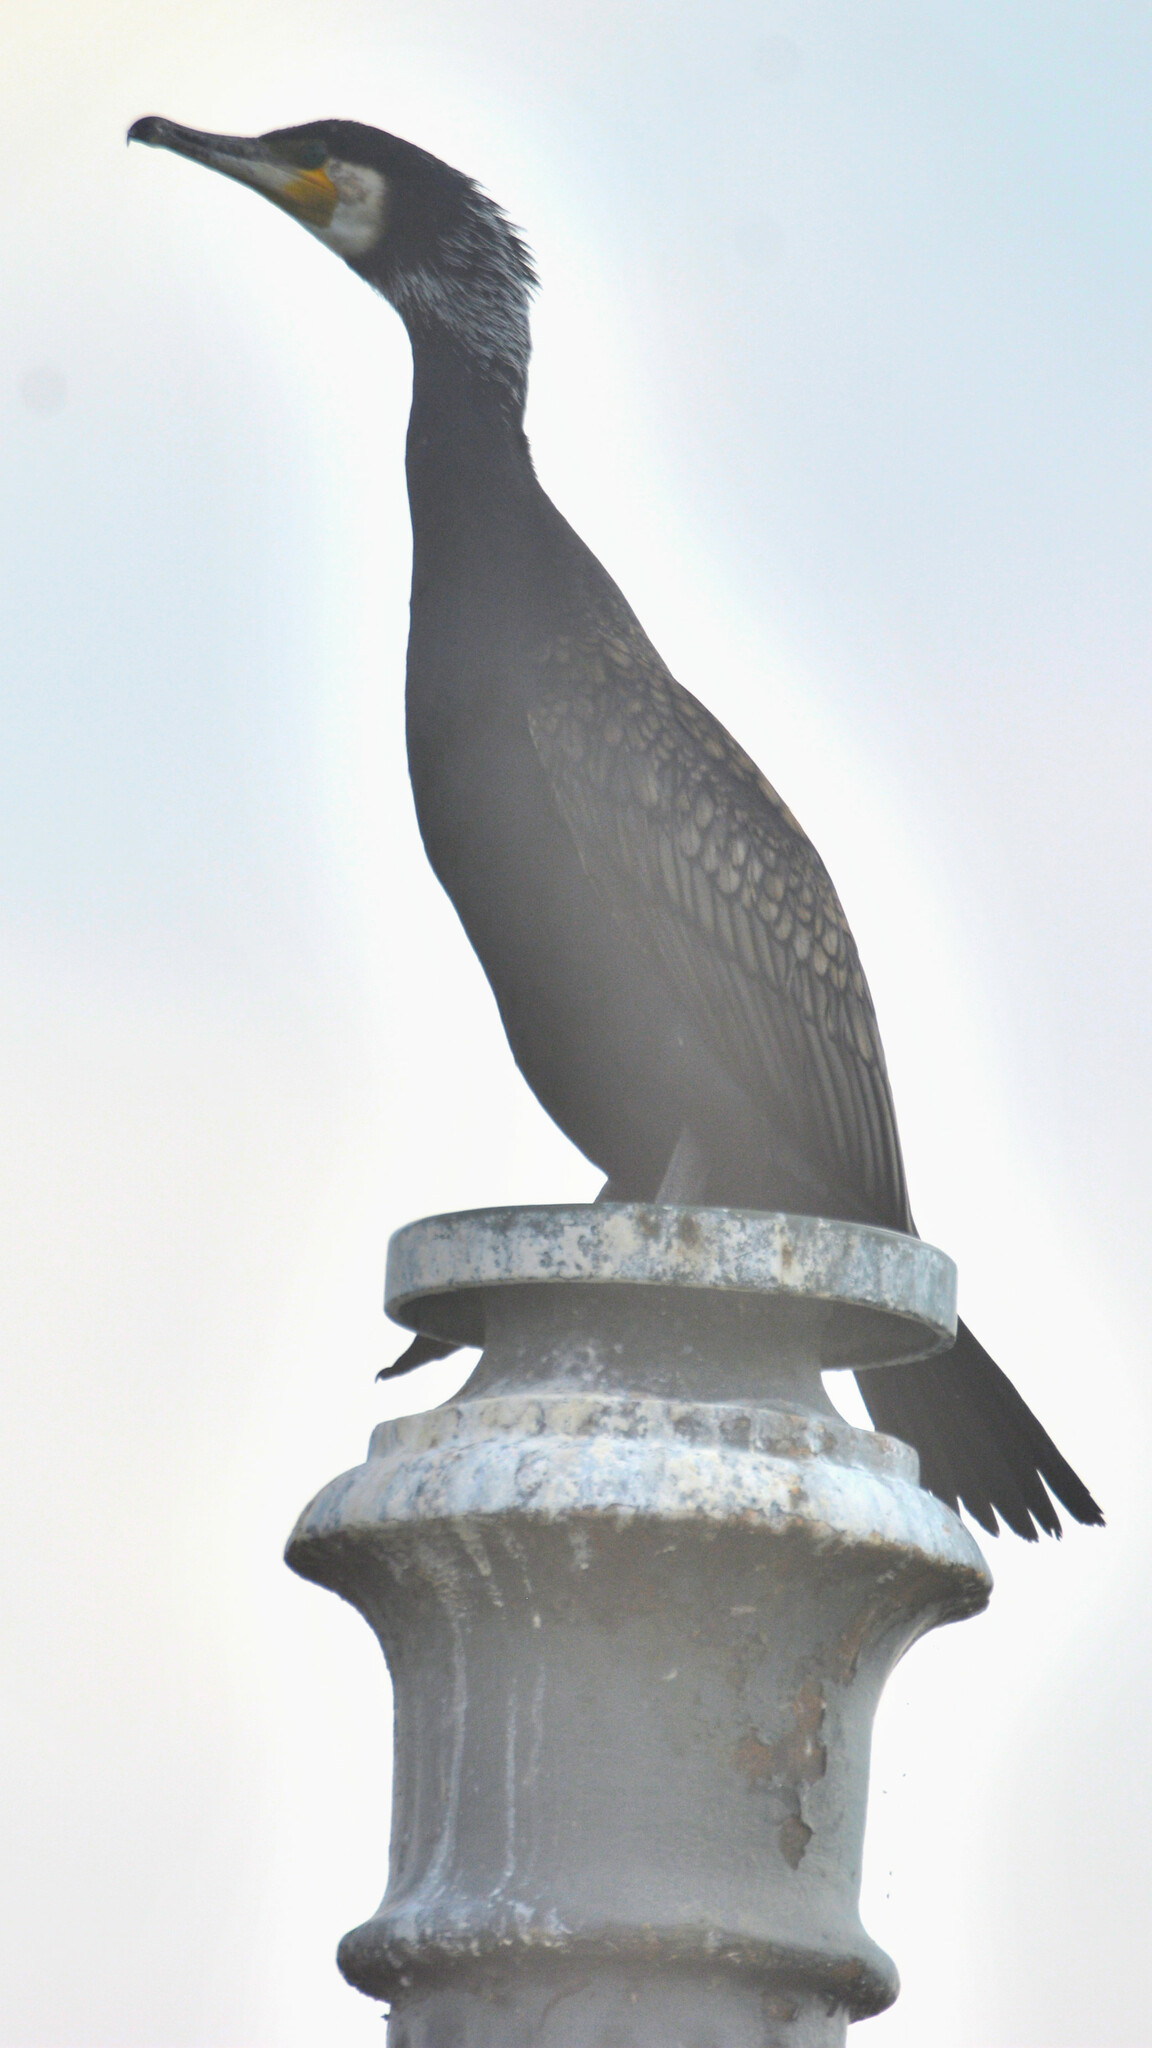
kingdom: Animalia
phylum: Chordata
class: Aves
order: Suliformes
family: Phalacrocoracidae
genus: Phalacrocorax
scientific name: Phalacrocorax carbo
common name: Great cormorant
